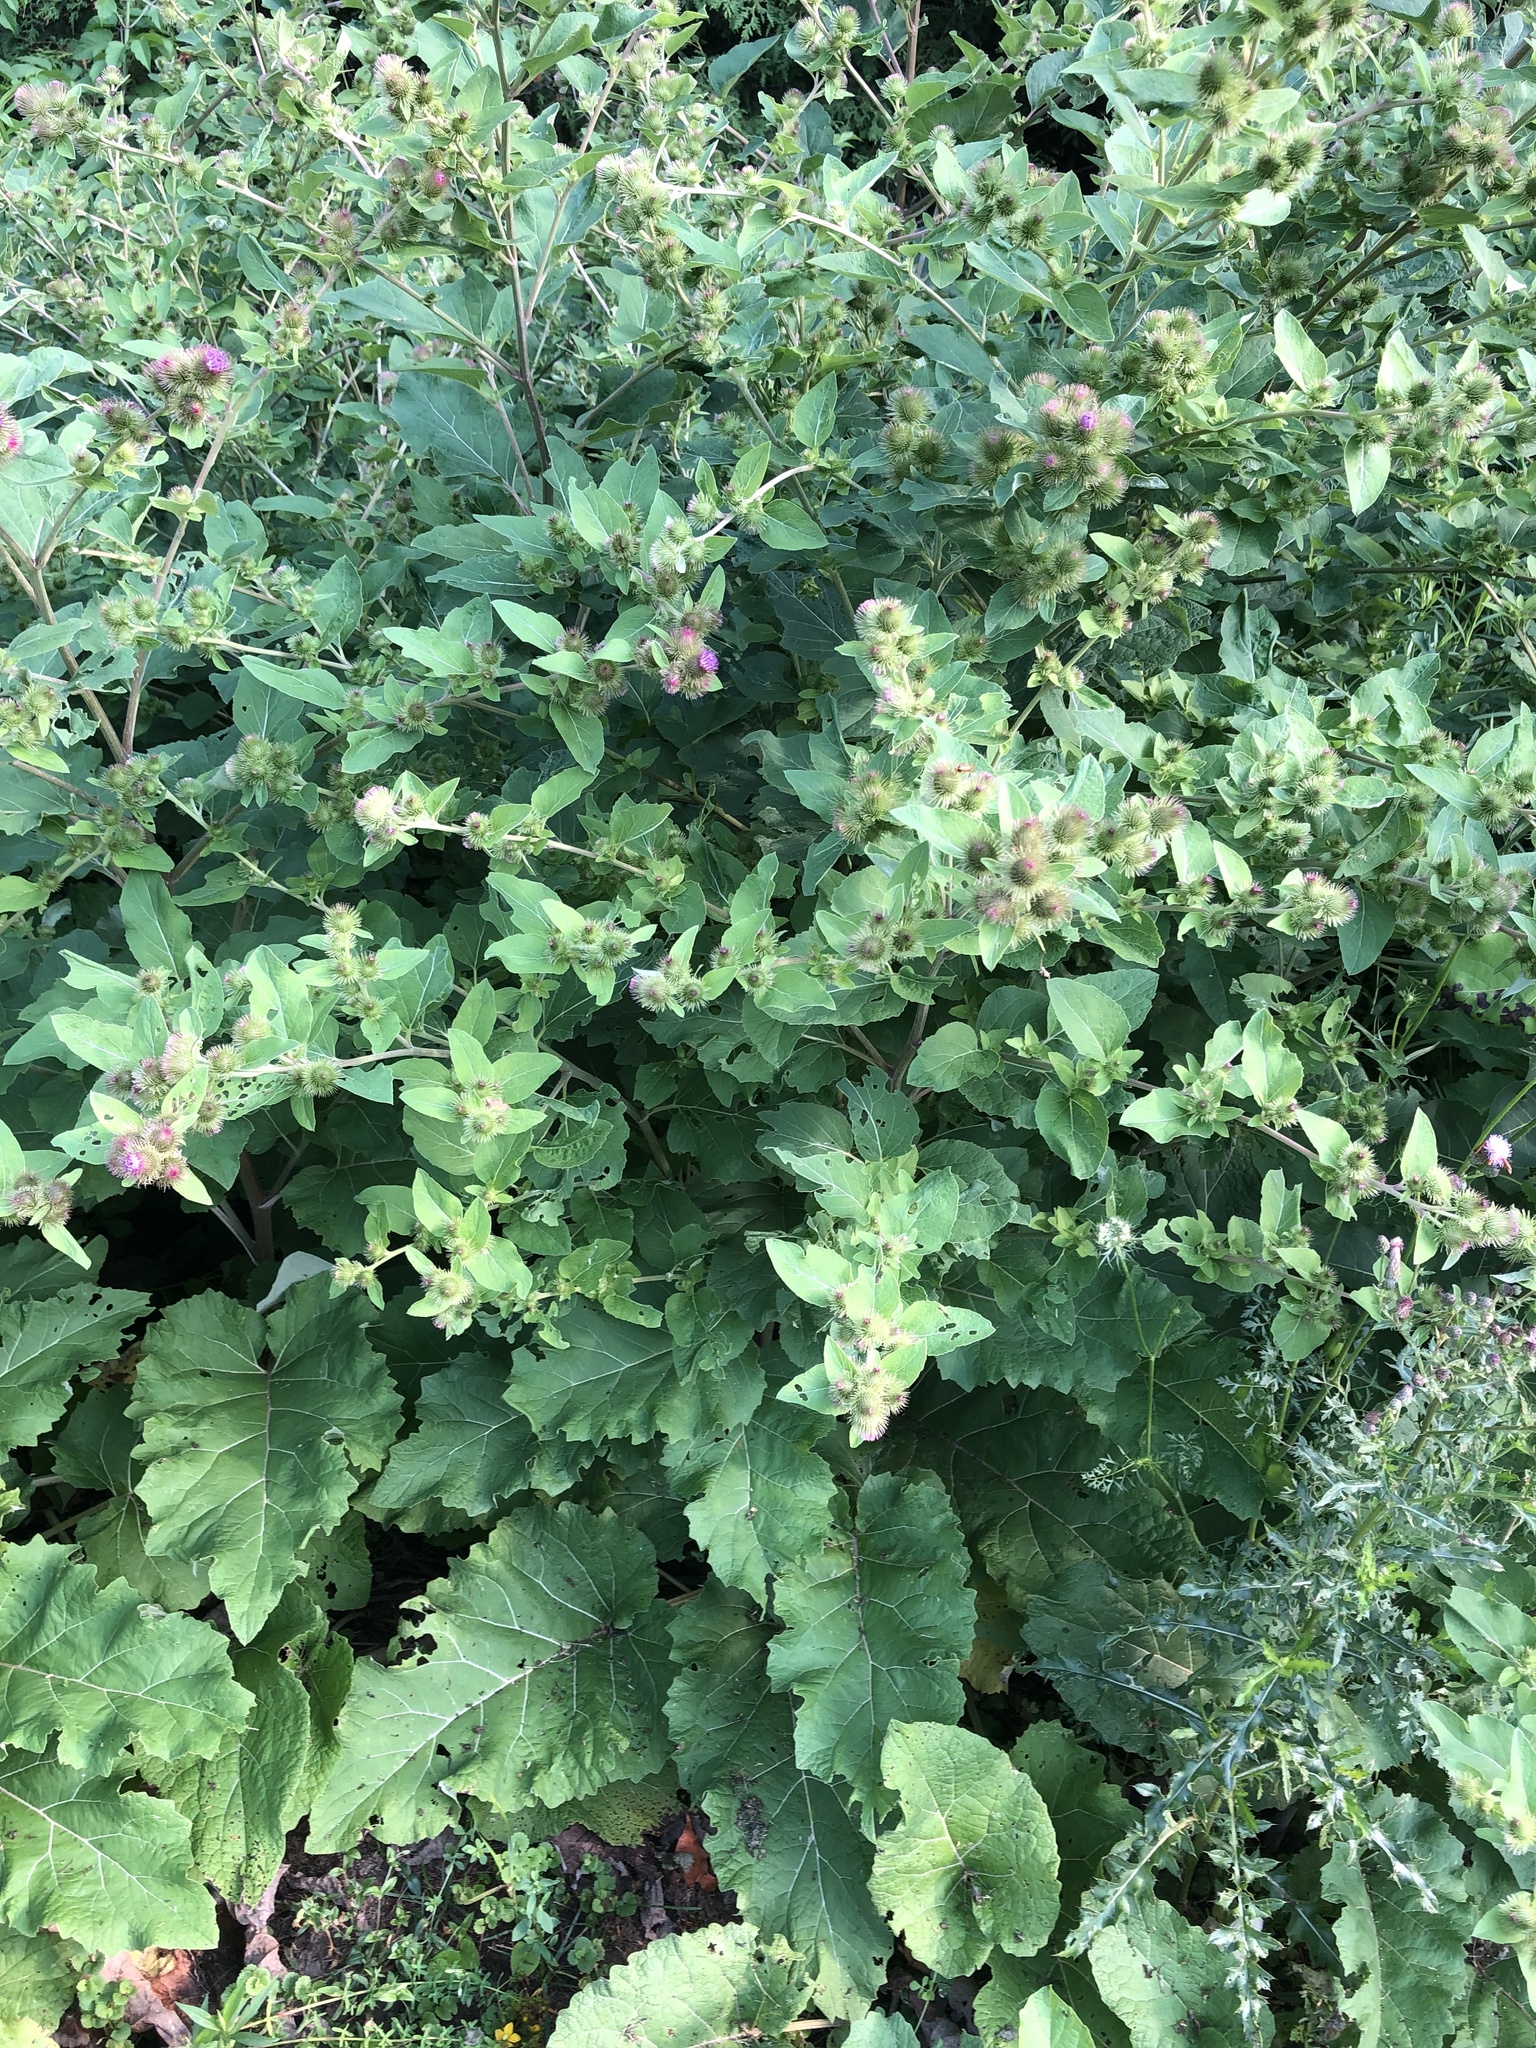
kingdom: Plantae
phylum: Tracheophyta
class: Magnoliopsida
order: Asterales
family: Asteraceae
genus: Arctium
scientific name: Arctium minus
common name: Lesser burdock
